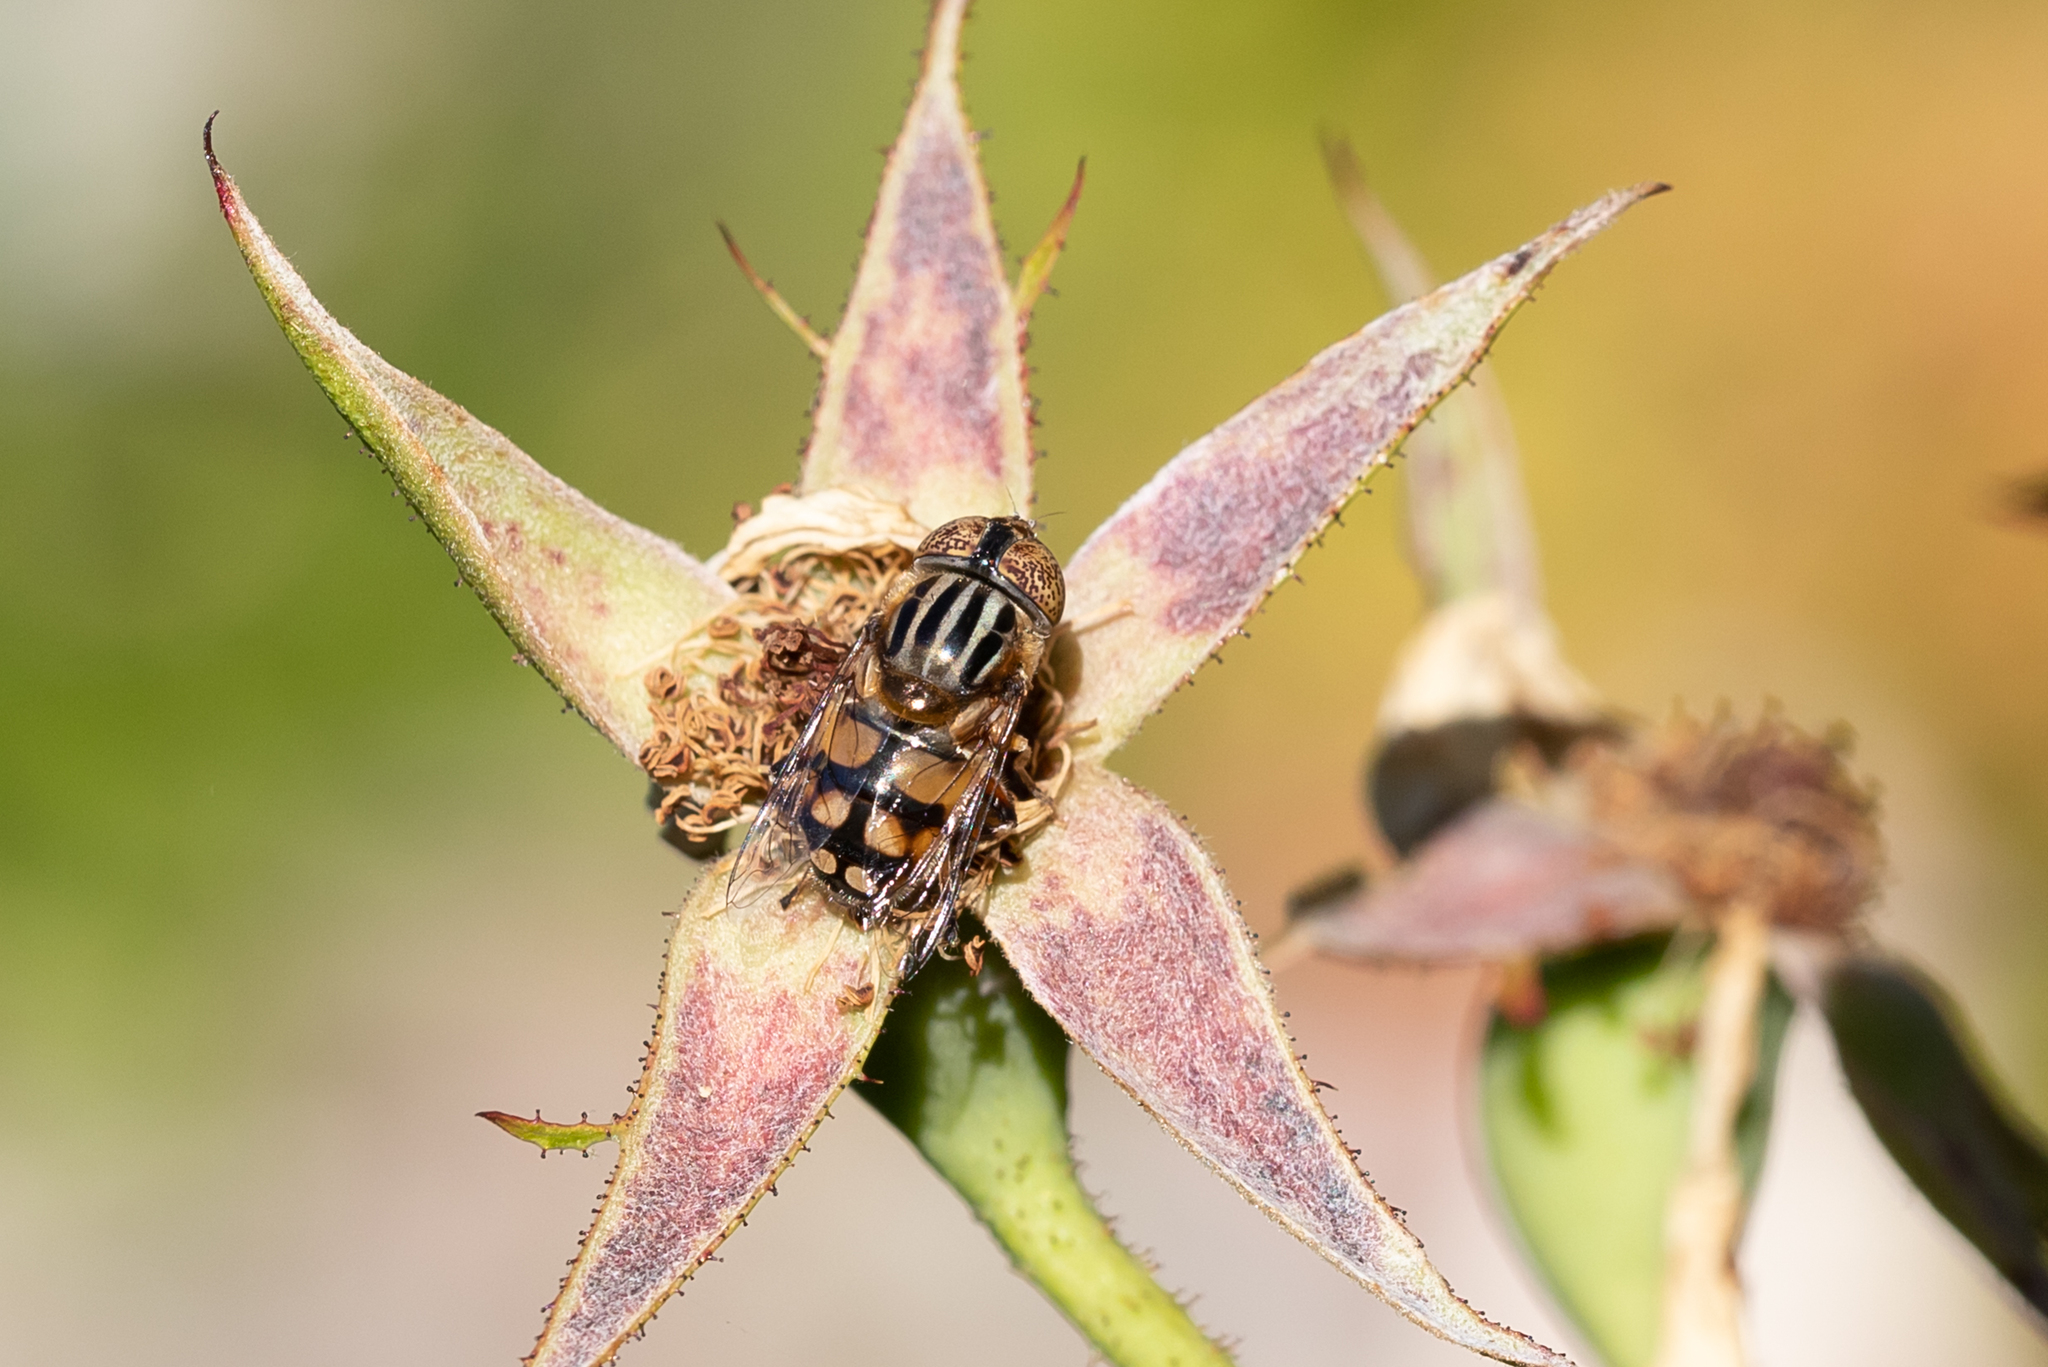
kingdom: Animalia
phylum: Arthropoda
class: Insecta
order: Diptera
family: Syrphidae
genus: Eristalinus
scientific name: Eristalinus punctulatus
